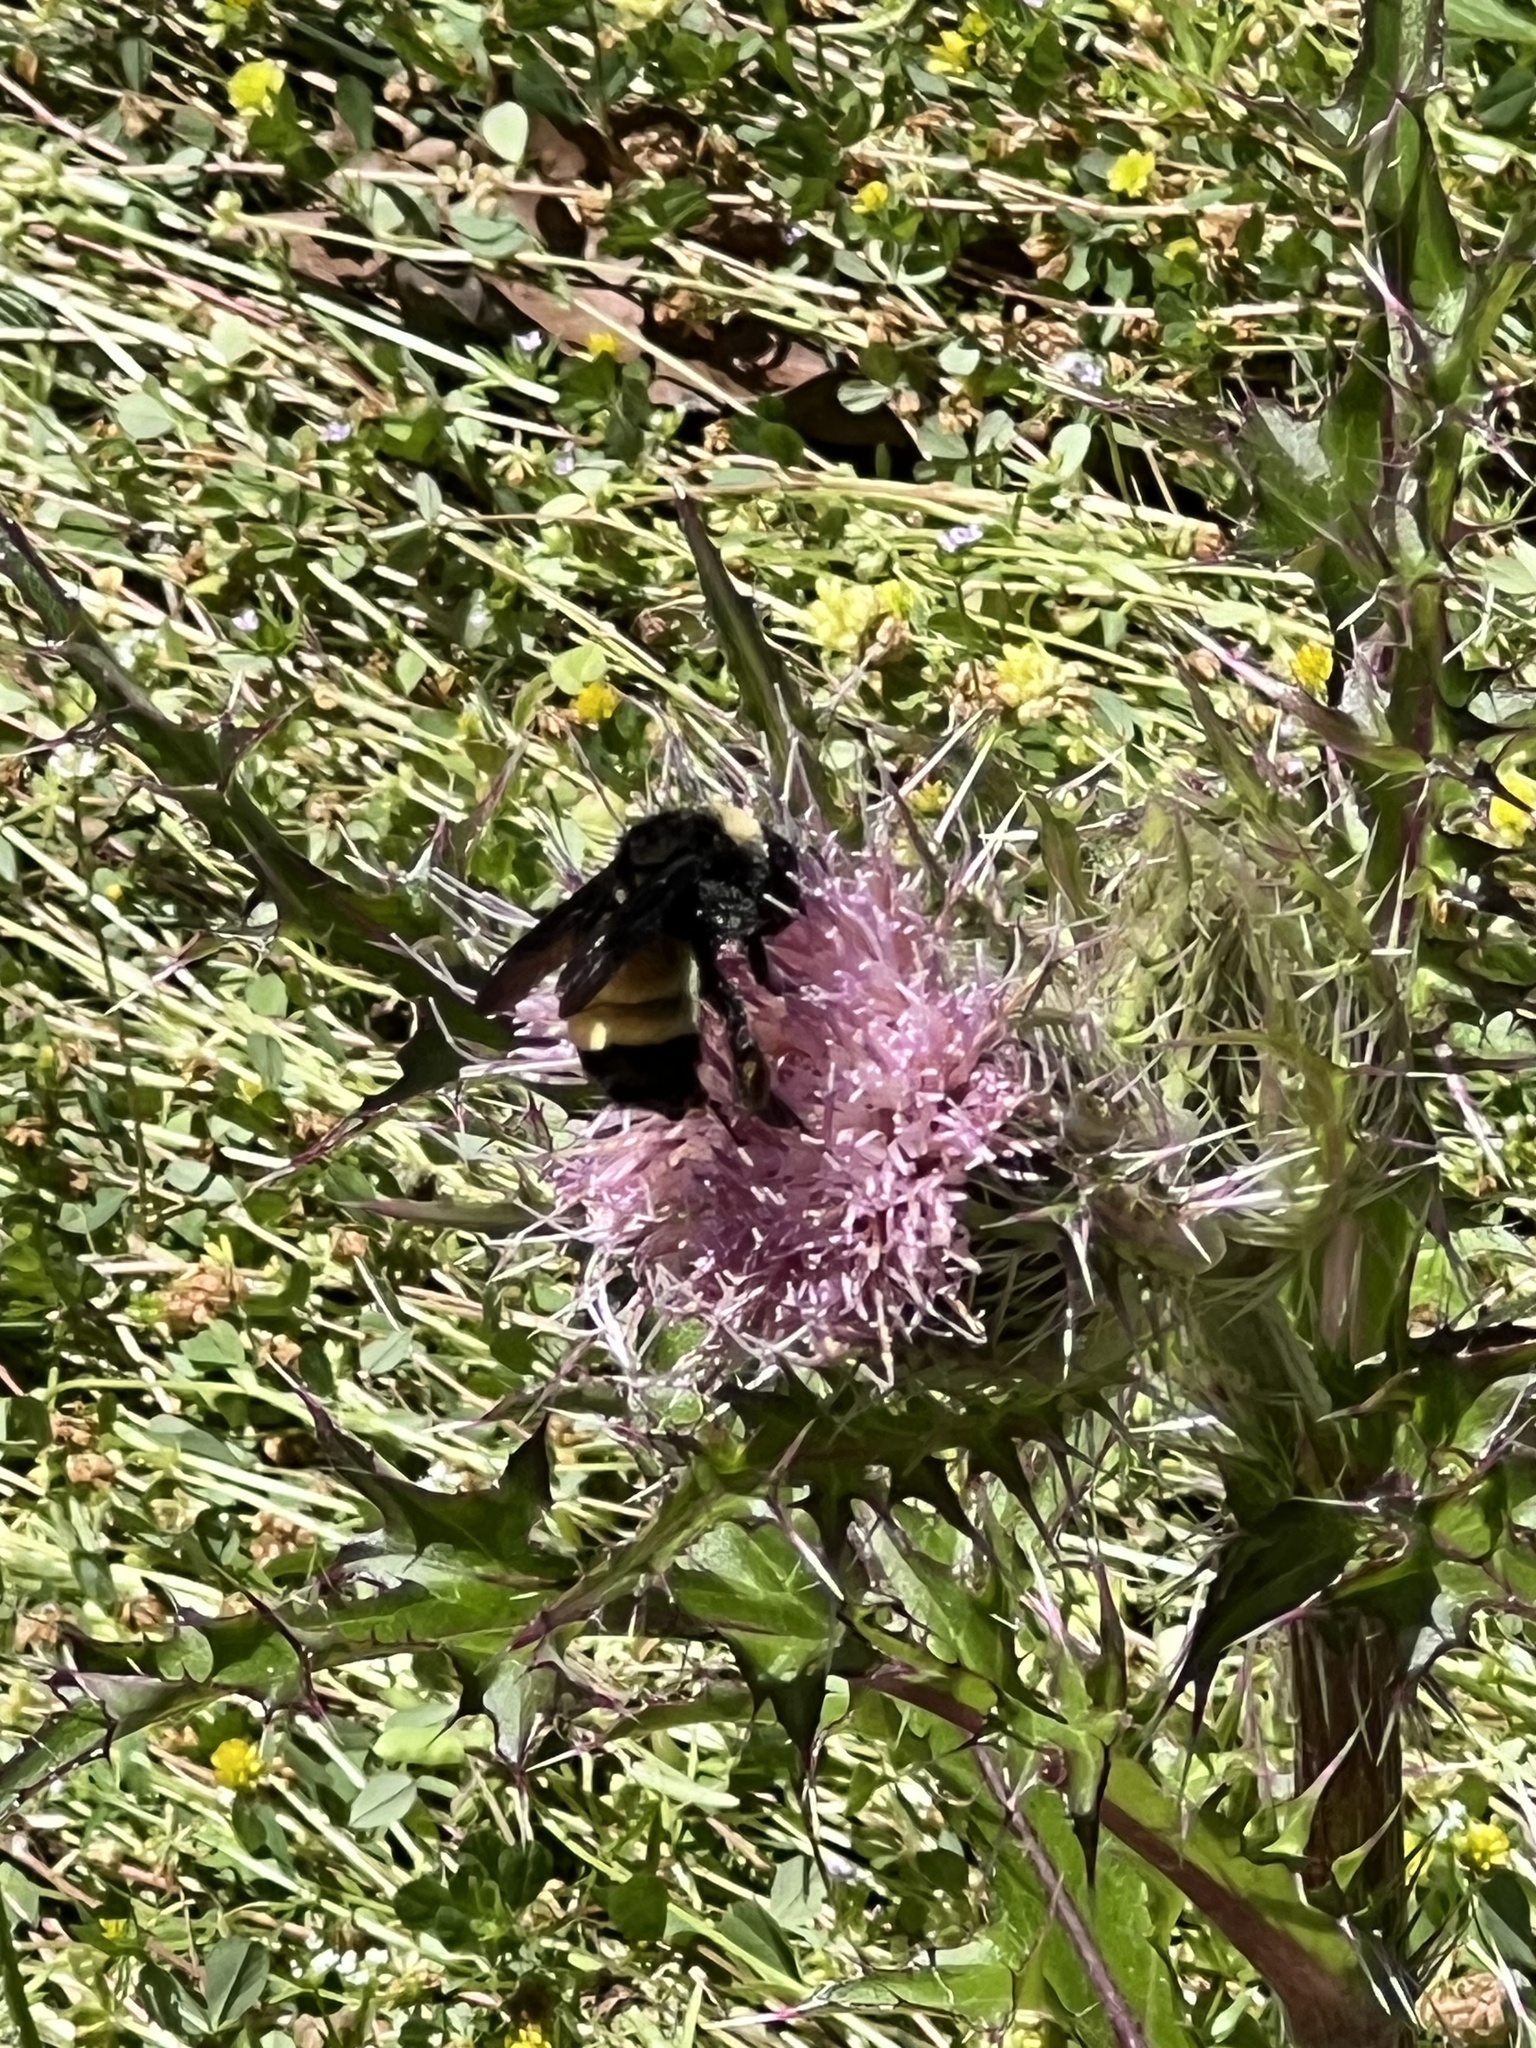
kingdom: Animalia
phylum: Arthropoda
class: Insecta
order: Hymenoptera
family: Apidae
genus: Bombus
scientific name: Bombus pensylvanicus
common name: Bumble bee
